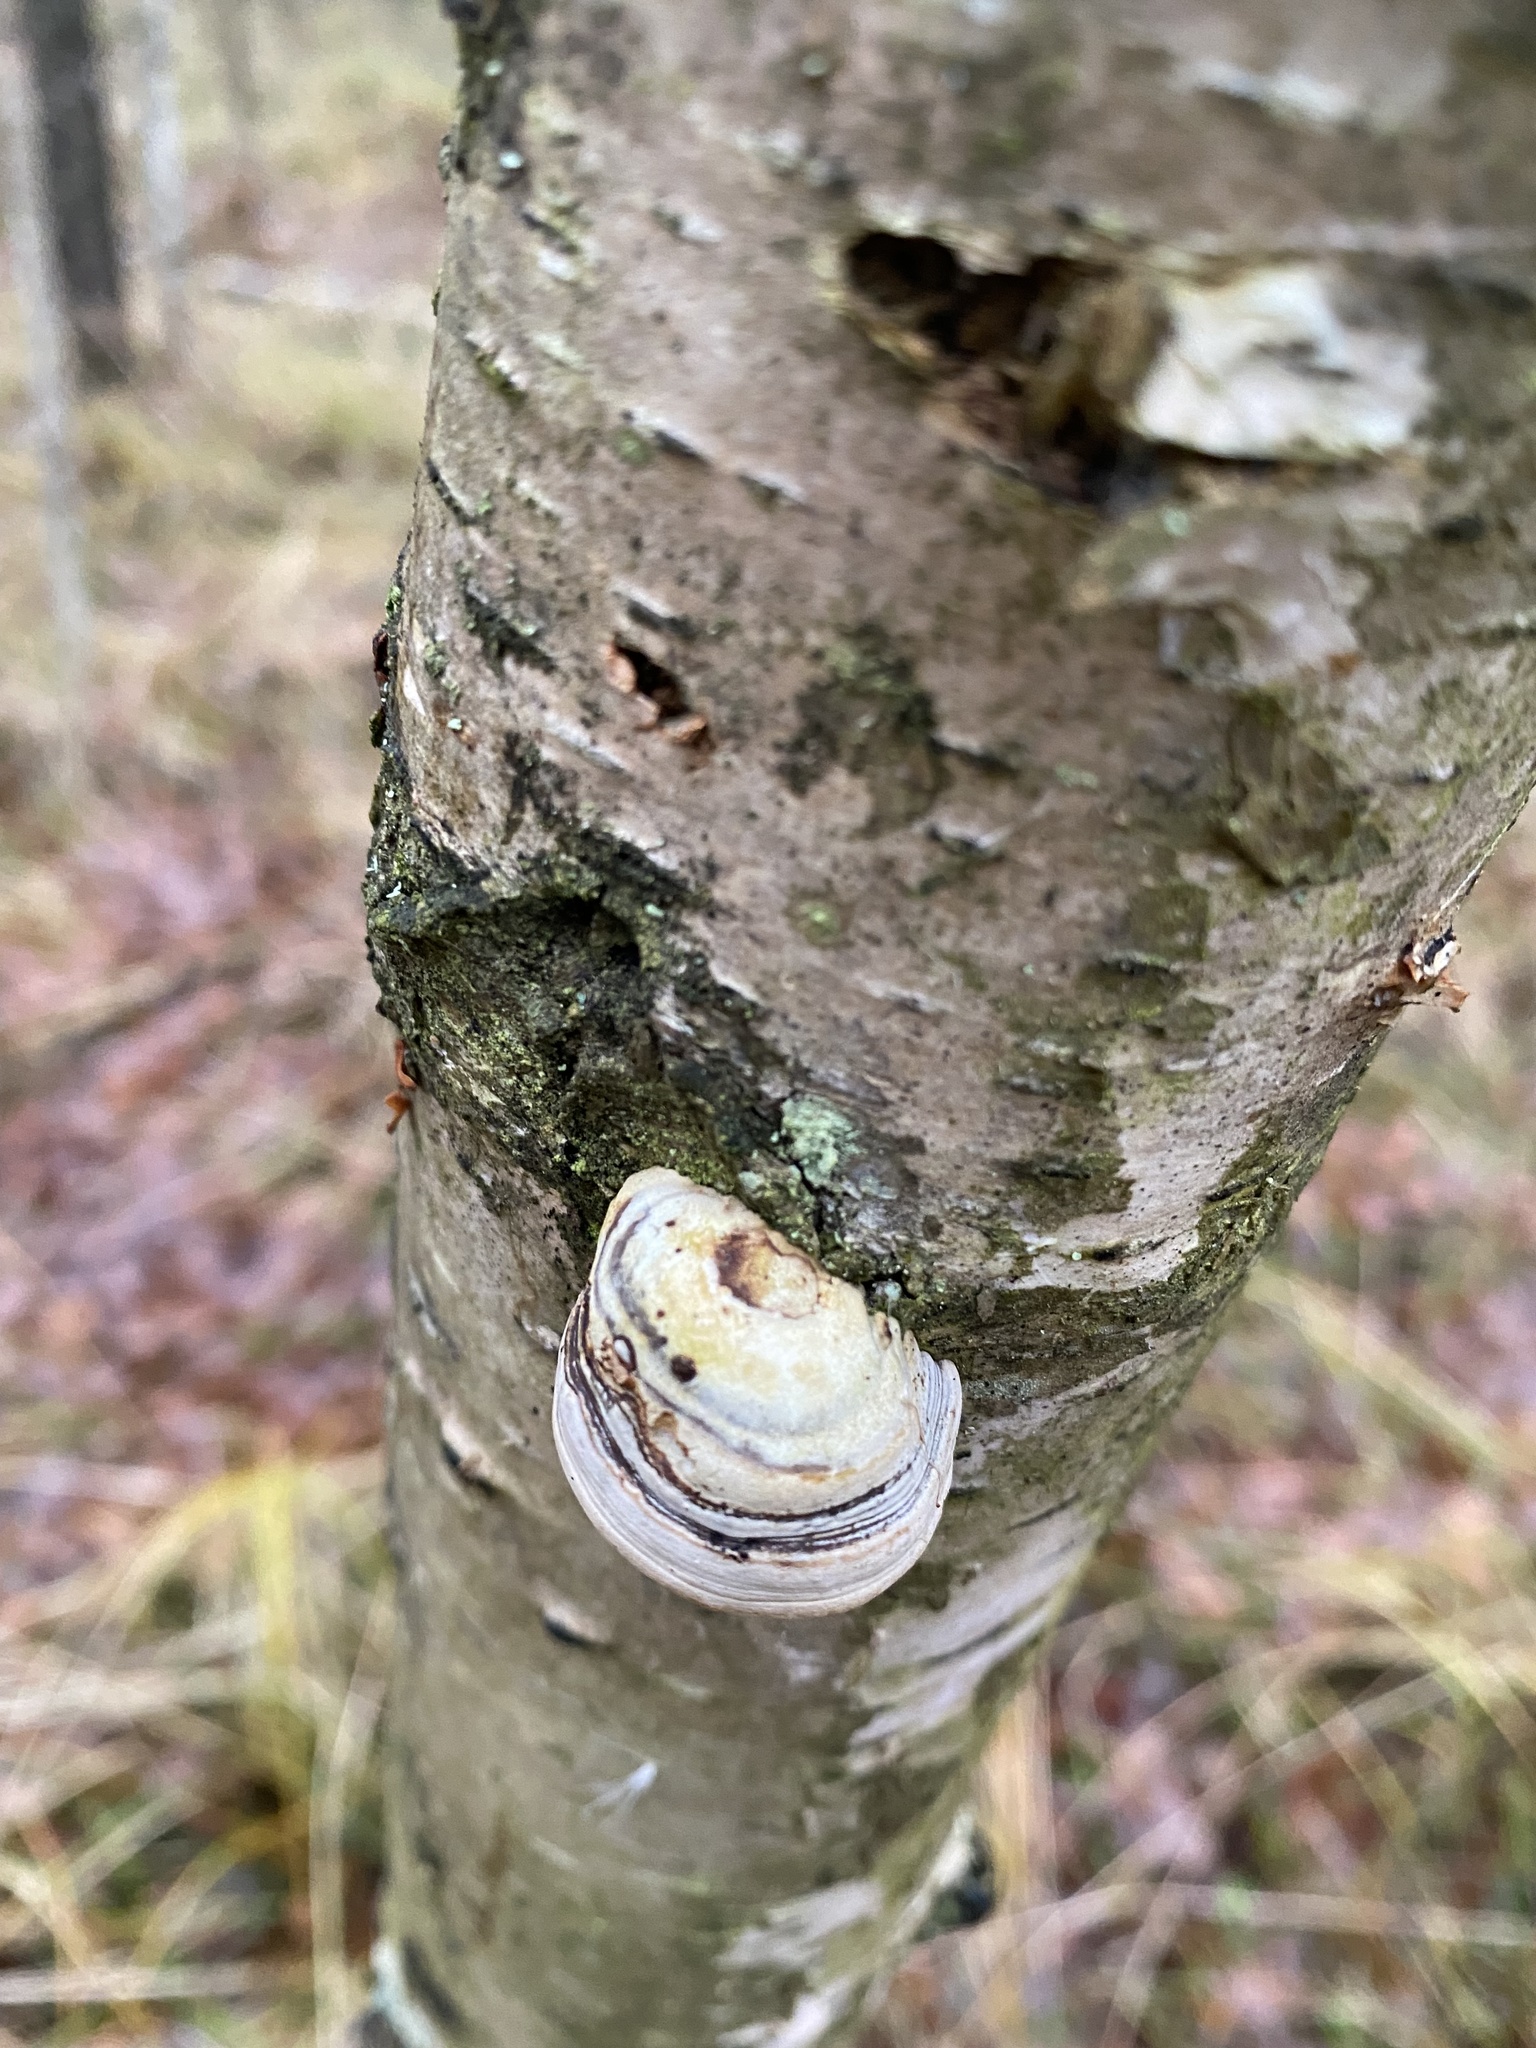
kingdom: Fungi
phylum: Basidiomycota
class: Agaricomycetes
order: Polyporales
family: Polyporaceae
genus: Fomes
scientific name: Fomes fomentarius
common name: Hoof fungus
